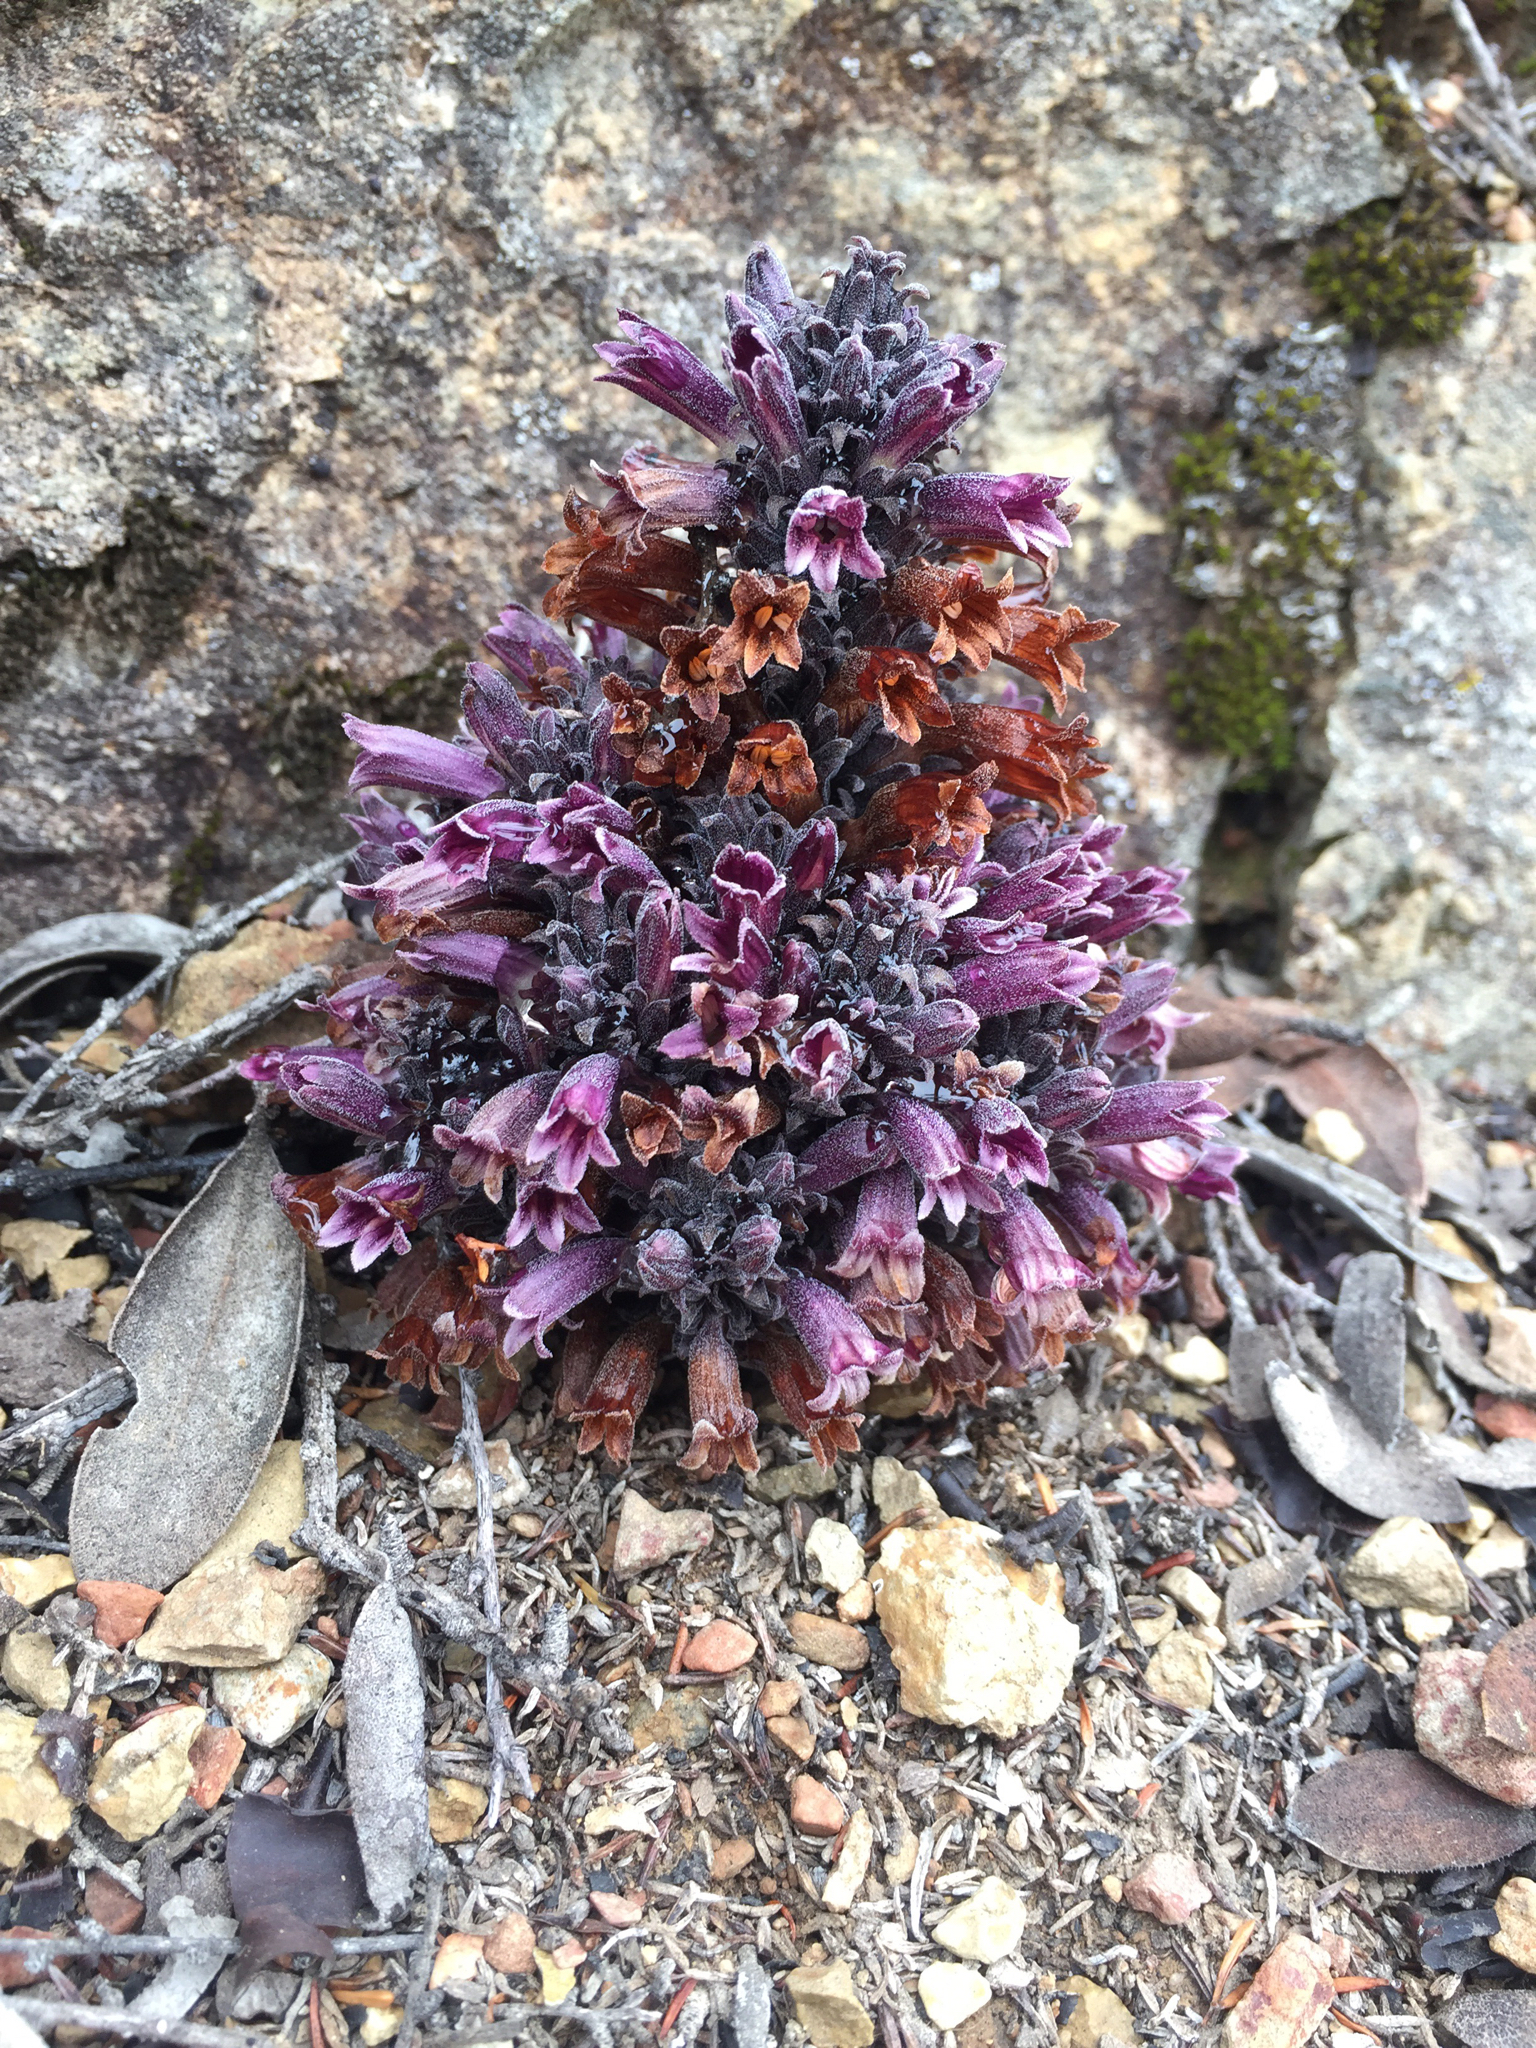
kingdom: Plantae
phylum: Tracheophyta
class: Magnoliopsida
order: Lamiales
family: Orobanchaceae
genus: Aphyllon
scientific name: Aphyllon tuberosum
